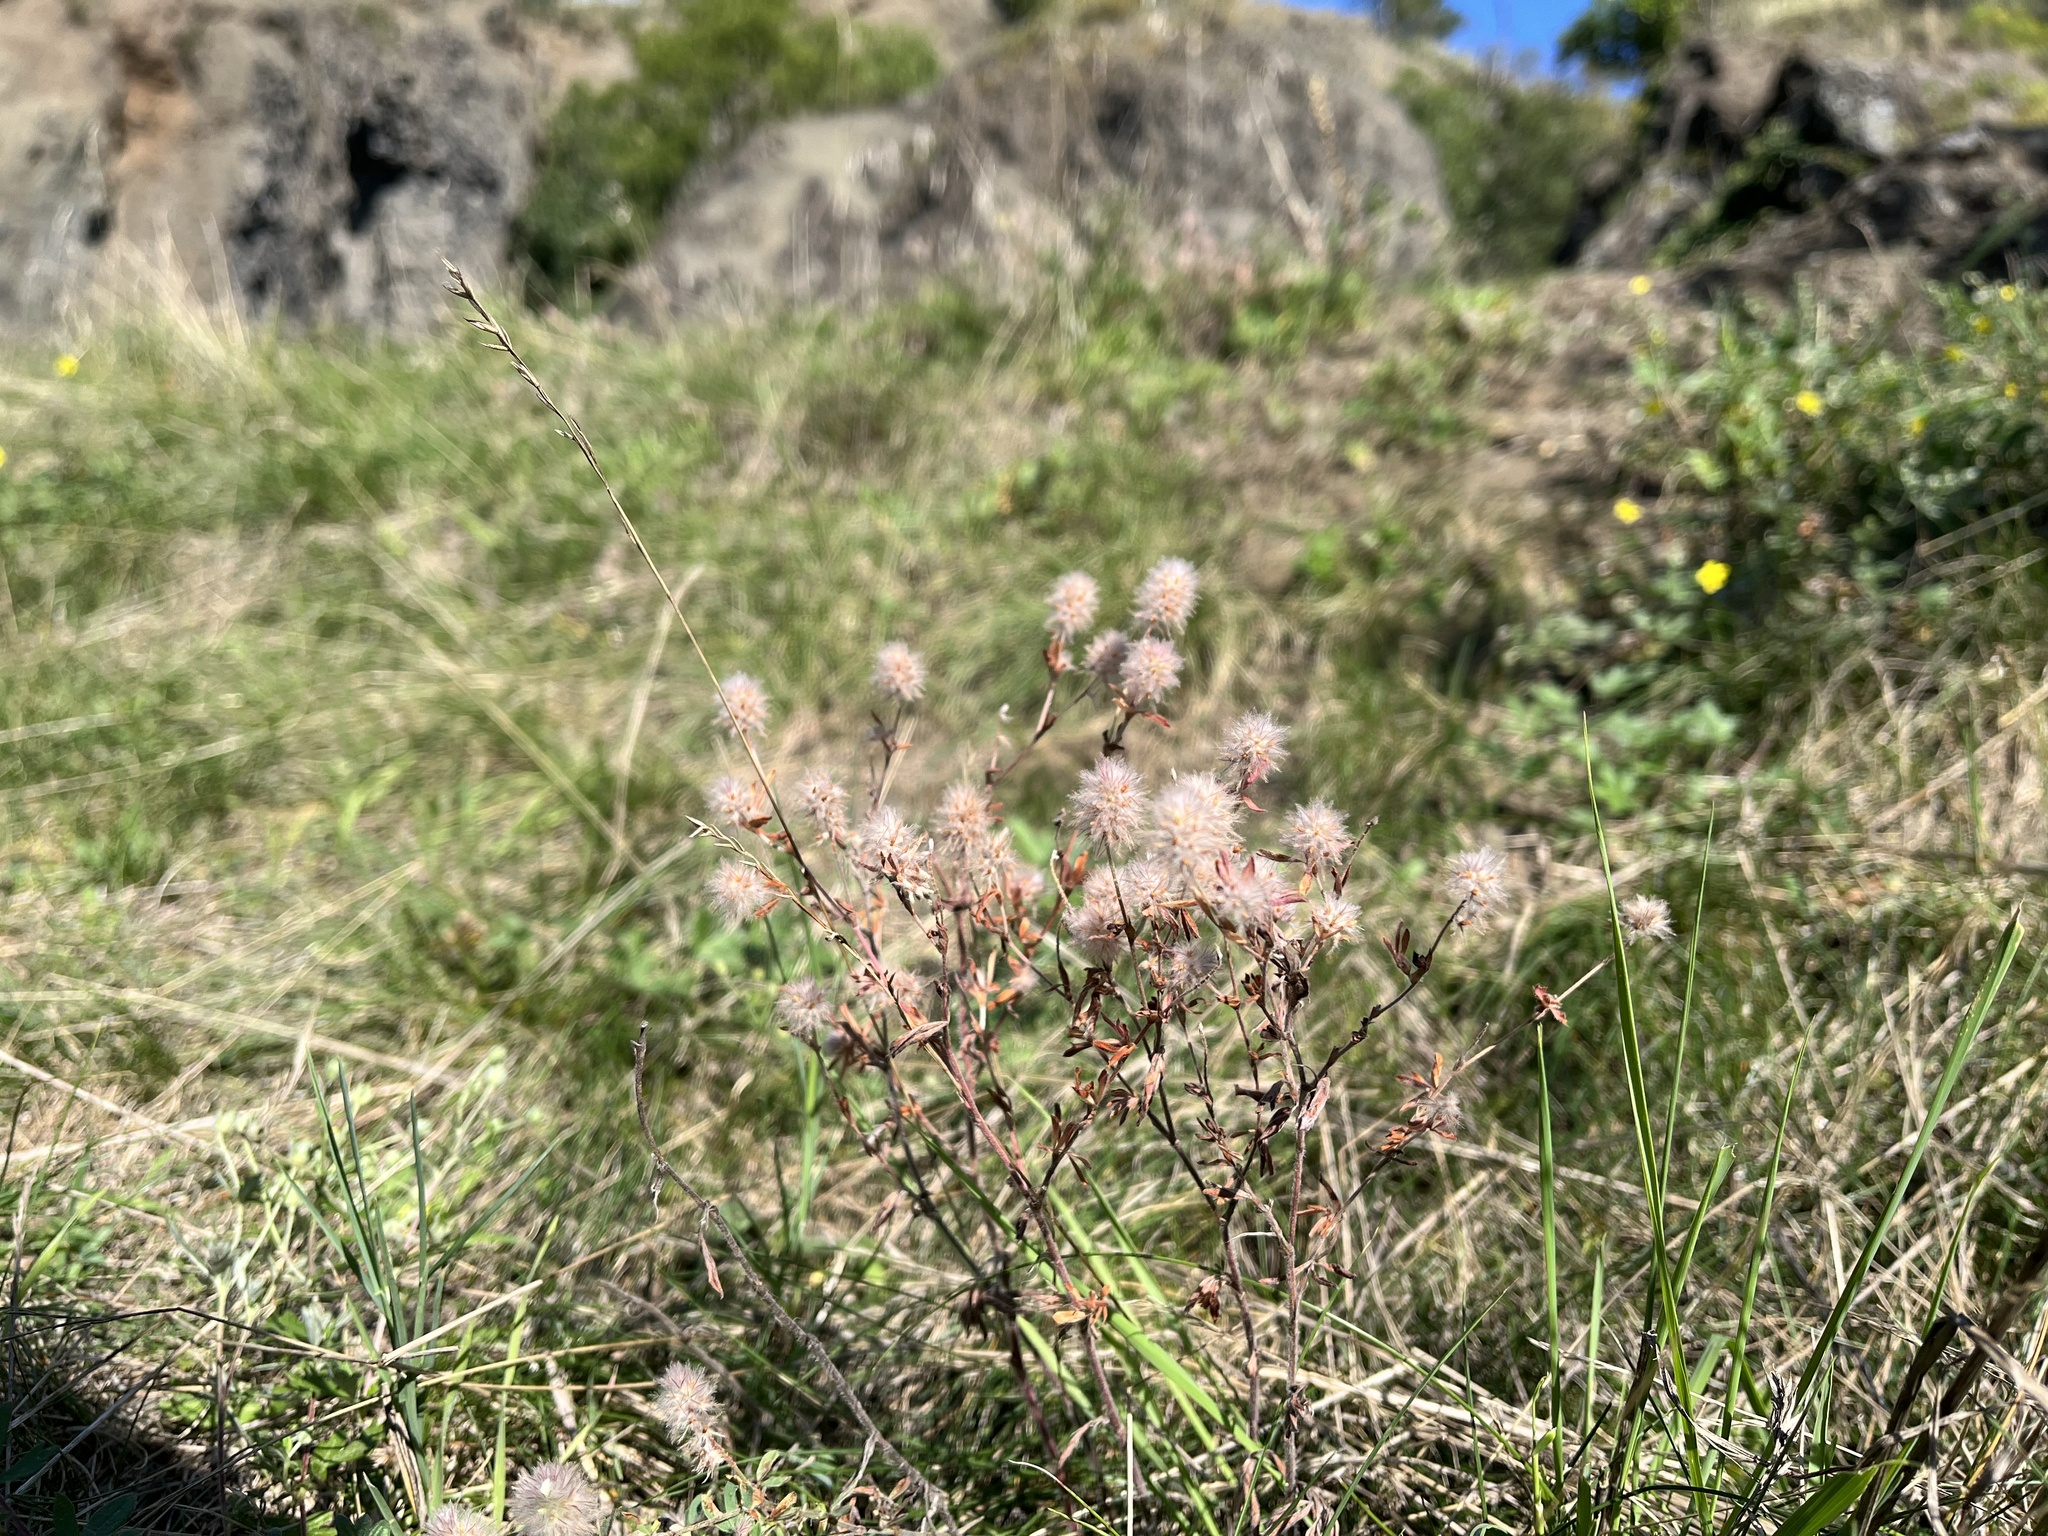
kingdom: Plantae
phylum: Tracheophyta
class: Magnoliopsida
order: Fabales
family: Fabaceae
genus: Trifolium
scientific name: Trifolium arvense
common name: Hare's-foot clover
